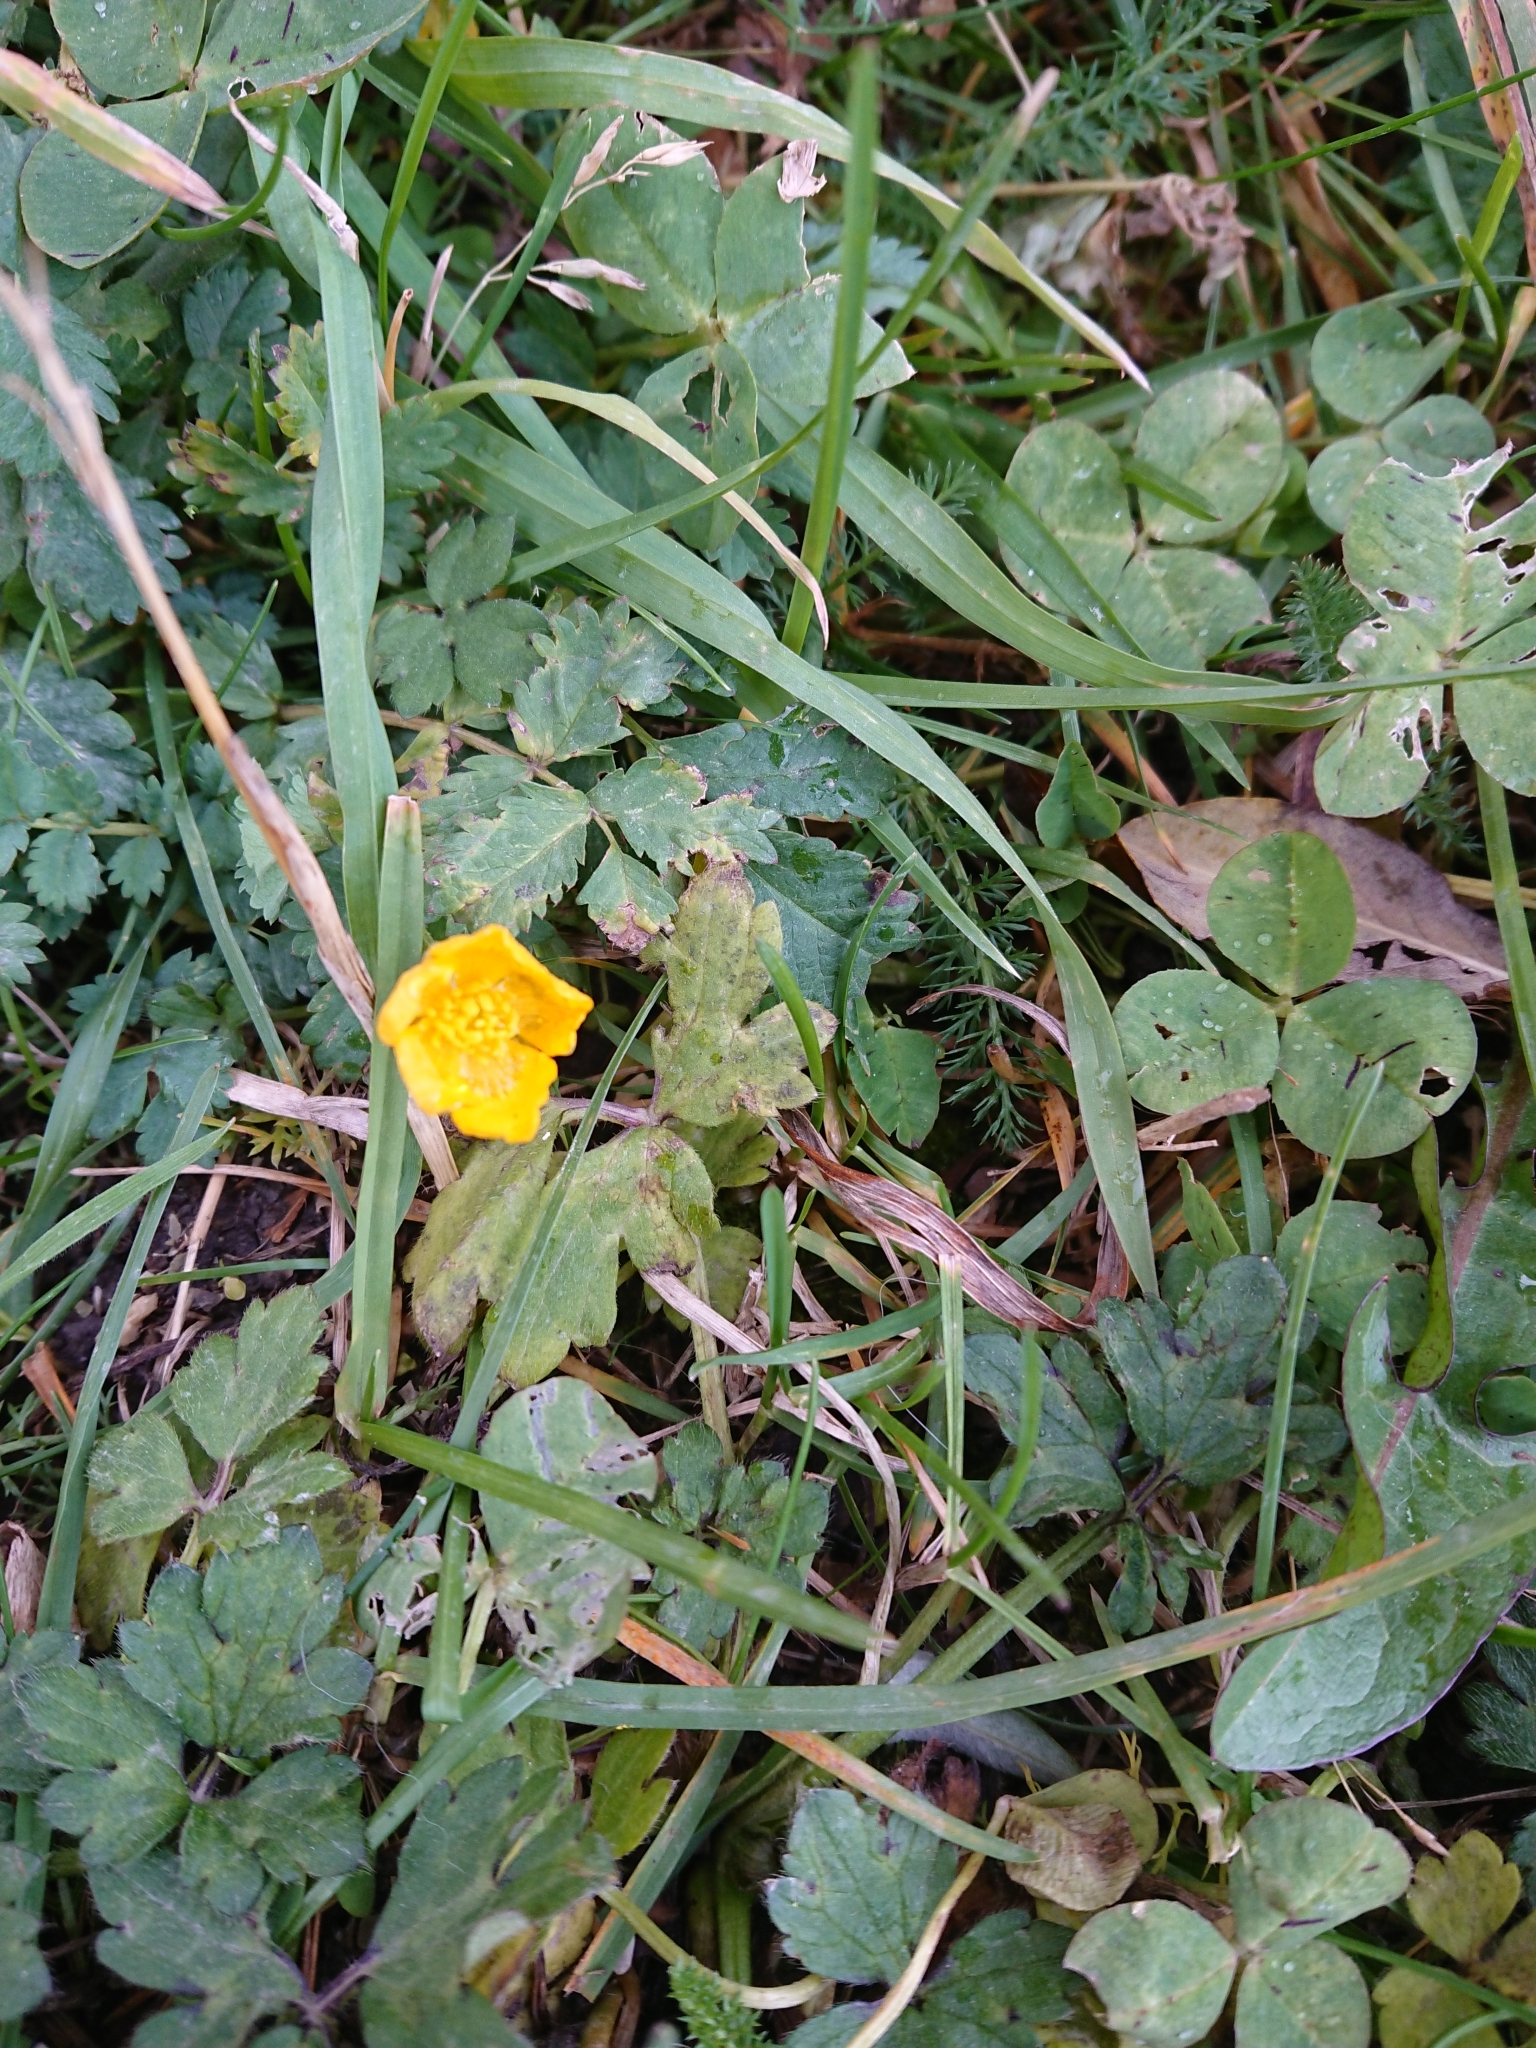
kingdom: Plantae
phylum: Tracheophyta
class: Magnoliopsida
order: Ranunculales
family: Ranunculaceae
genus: Ranunculus
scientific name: Ranunculus repens
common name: Creeping buttercup
